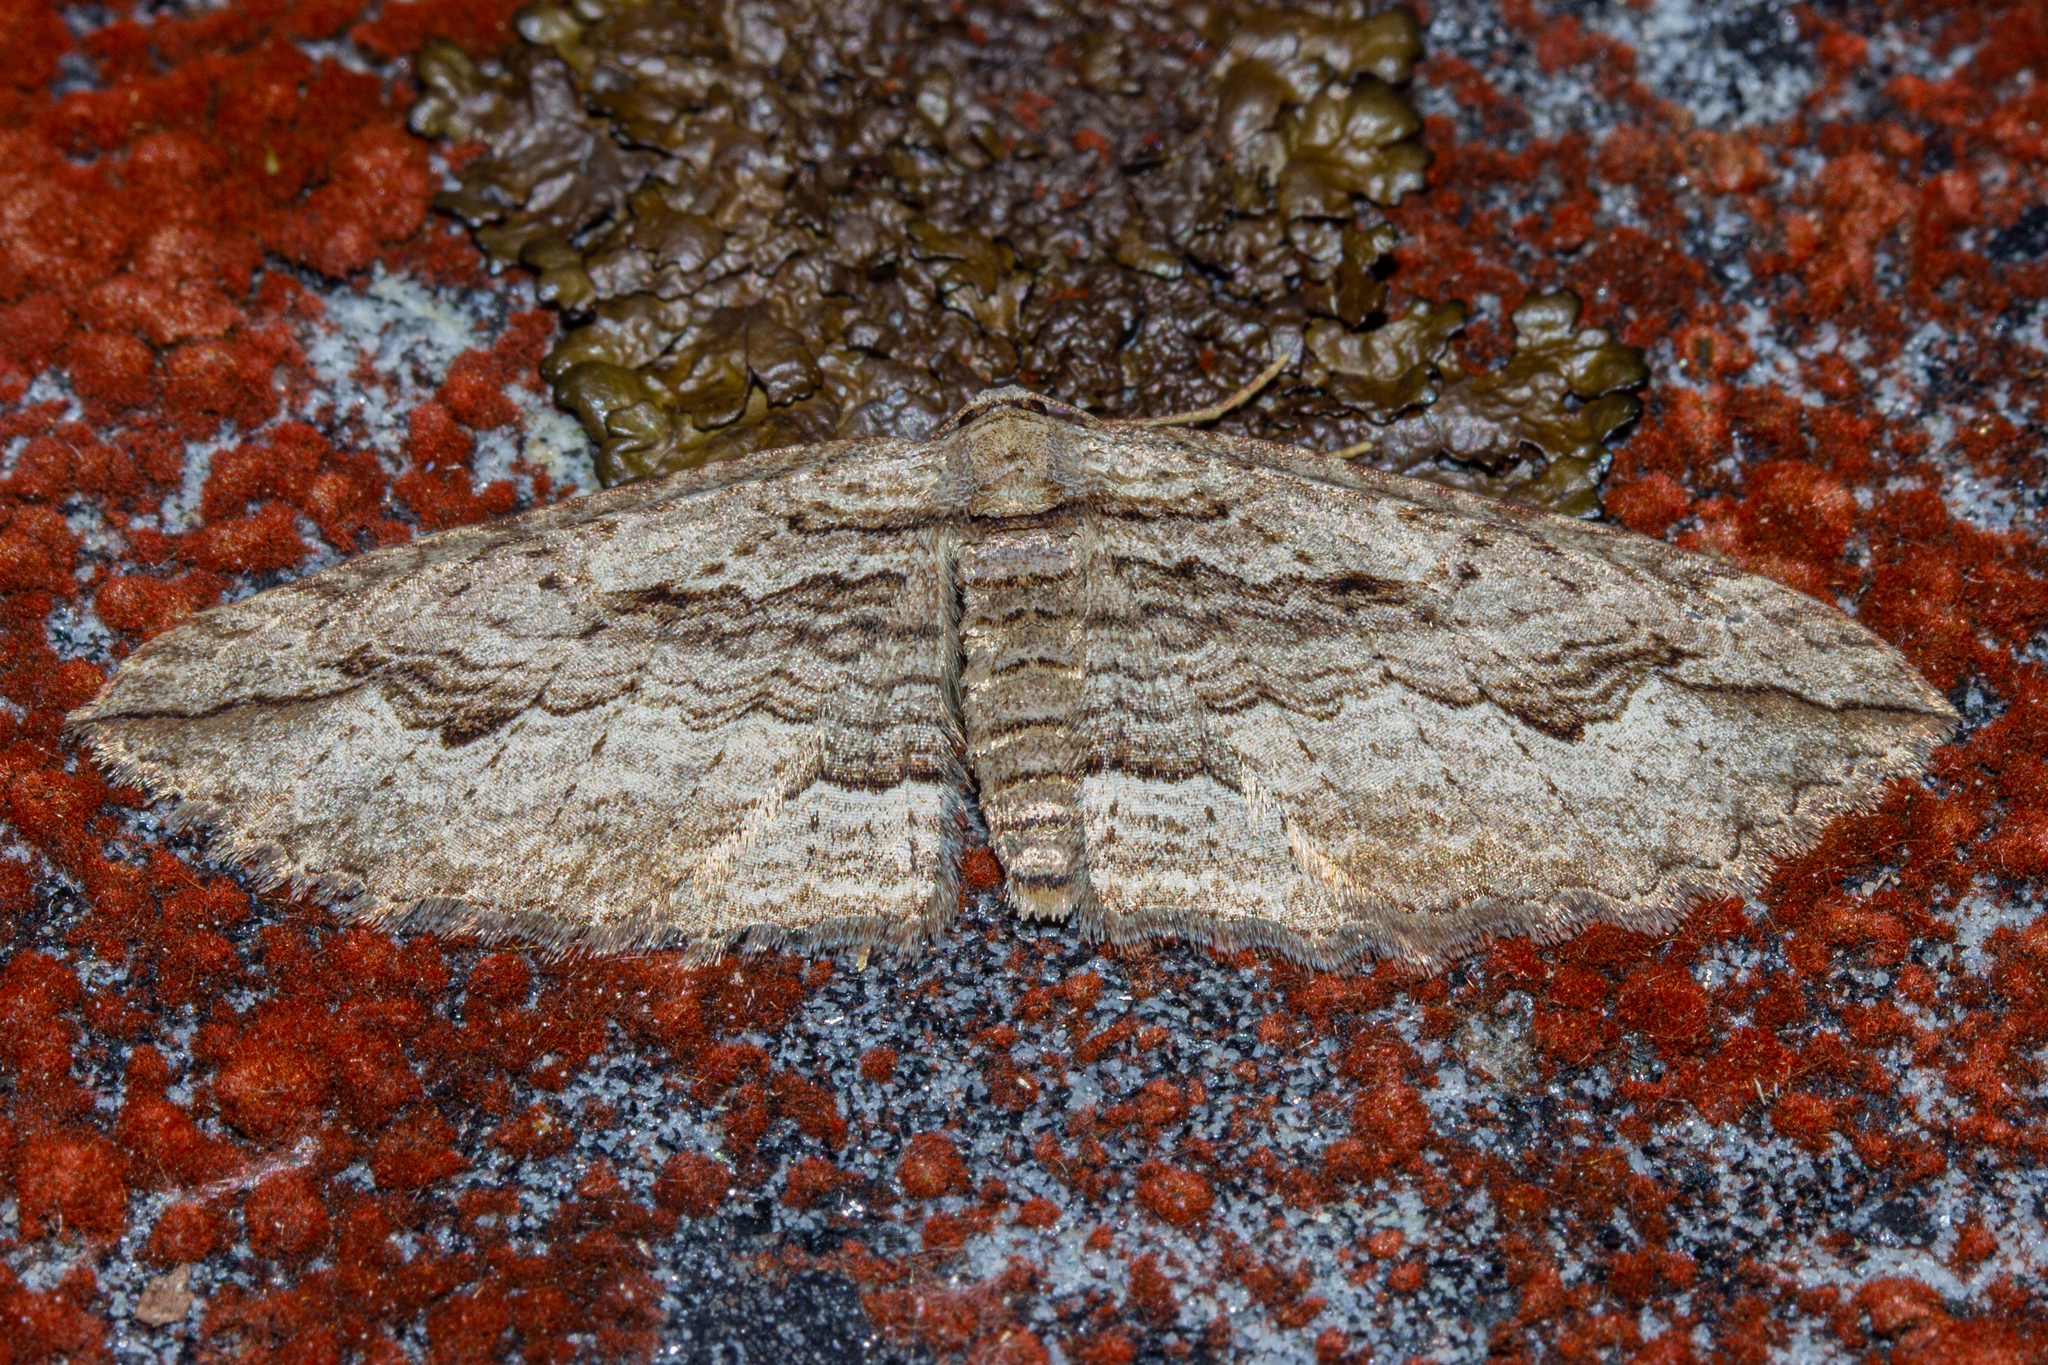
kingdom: Animalia
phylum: Arthropoda
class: Insecta
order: Lepidoptera
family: Geometridae
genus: Austrocidaria
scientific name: Austrocidaria gobiata
